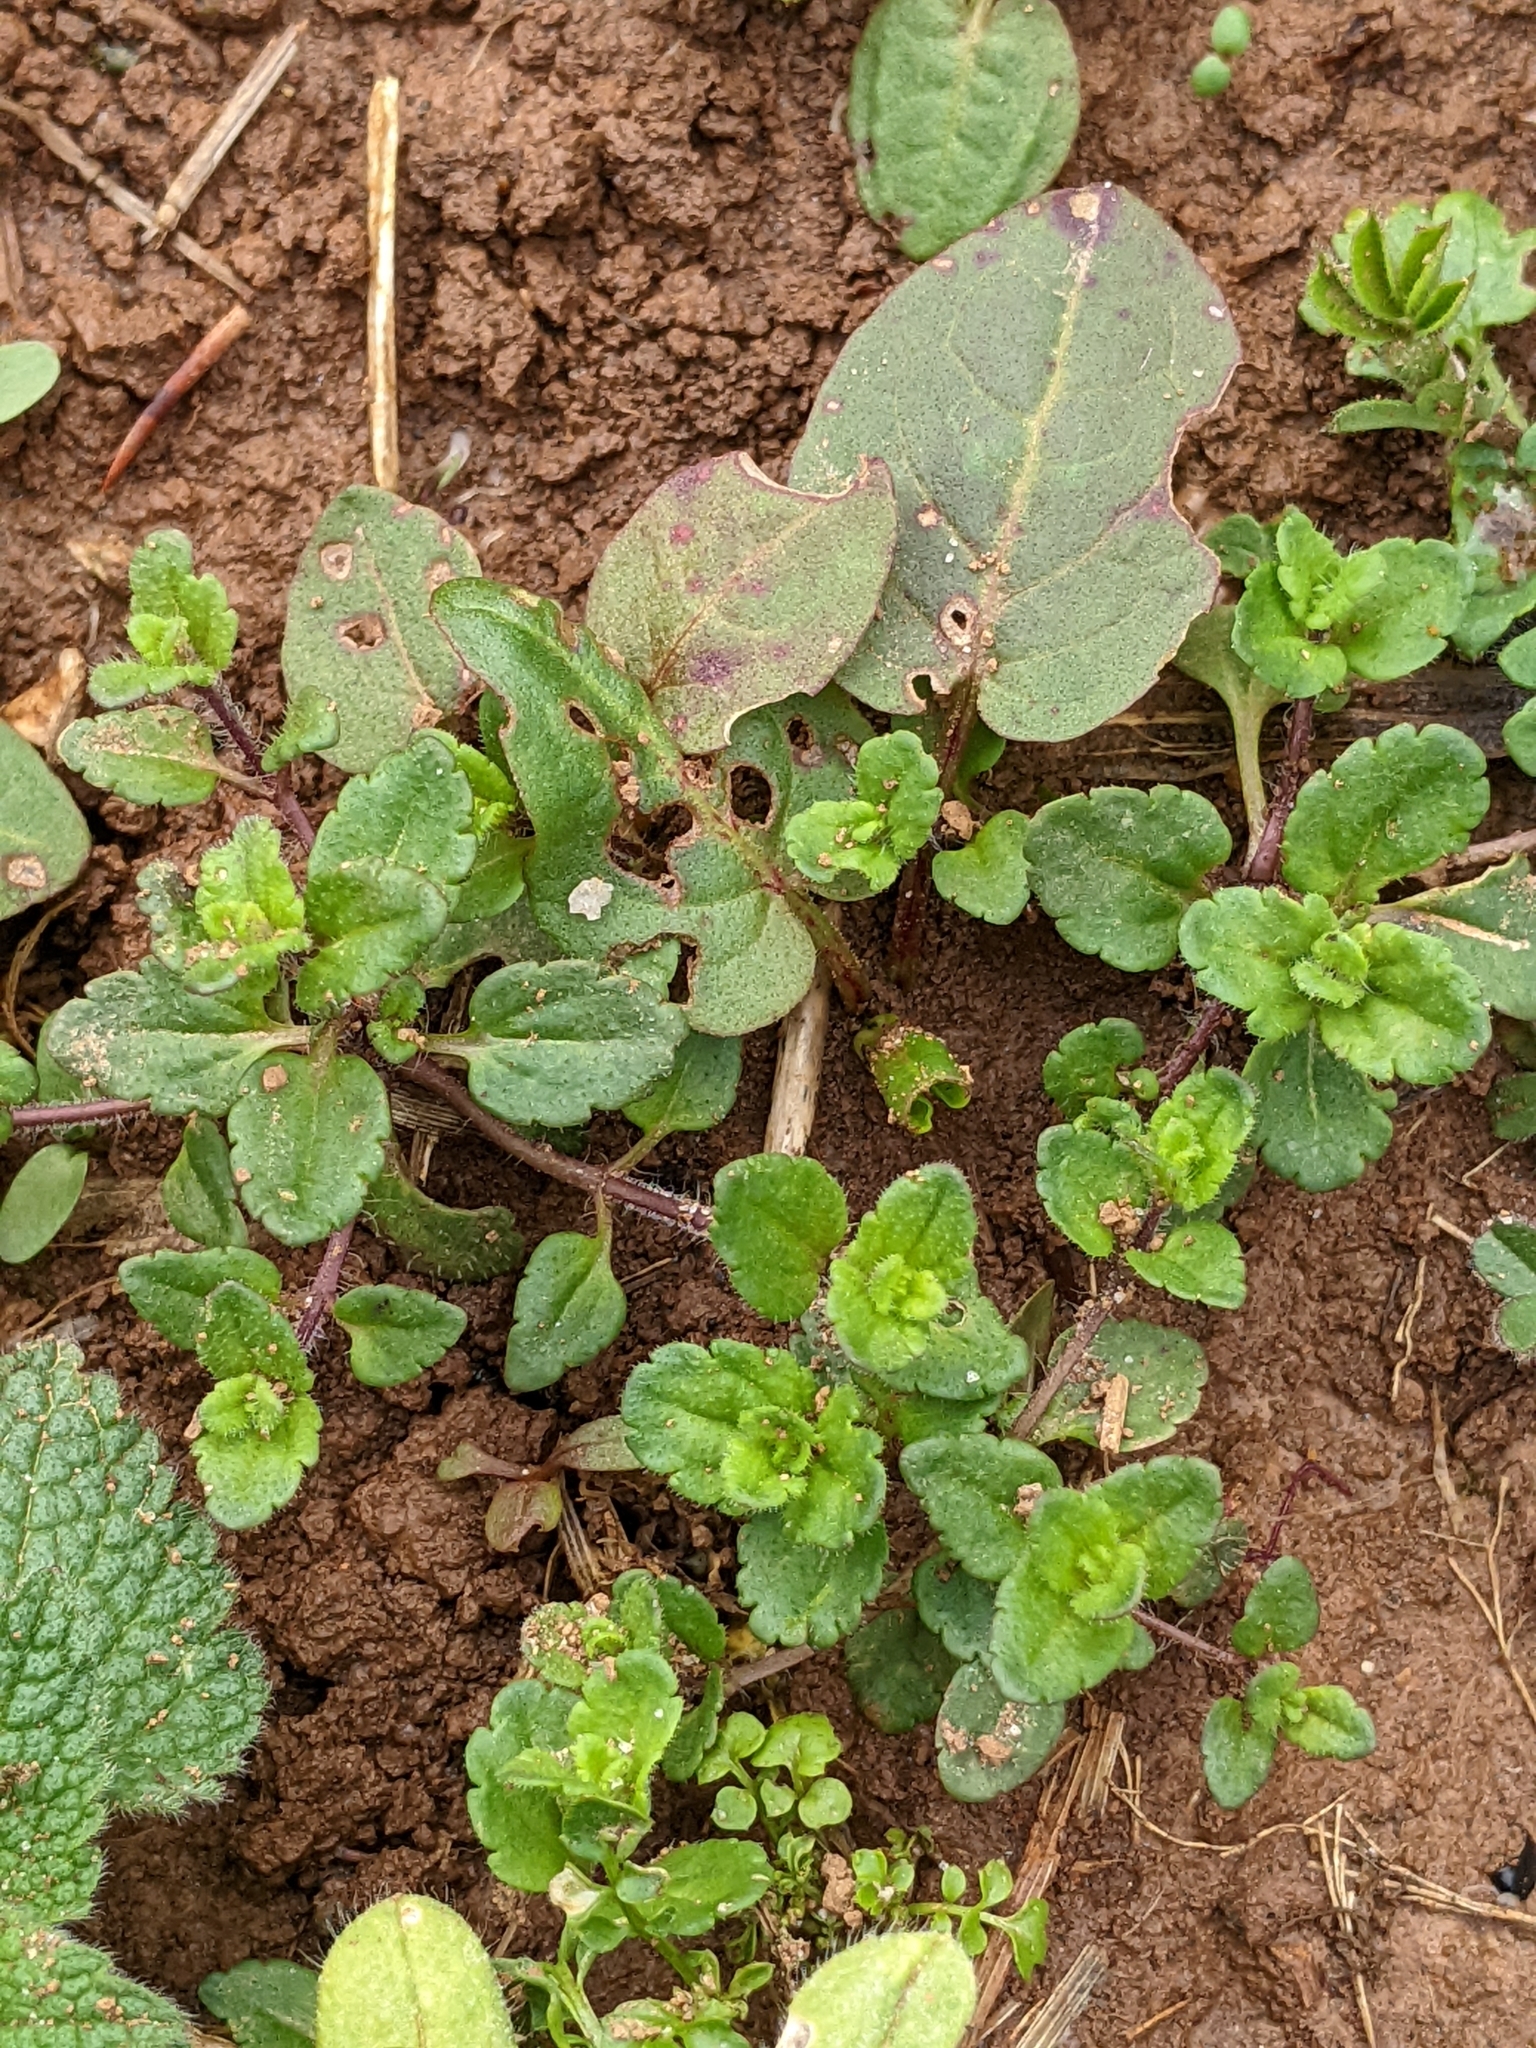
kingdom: Plantae
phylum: Tracheophyta
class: Magnoliopsida
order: Lamiales
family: Plantaginaceae
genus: Veronica
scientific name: Veronica arvensis
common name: Corn speedwell
